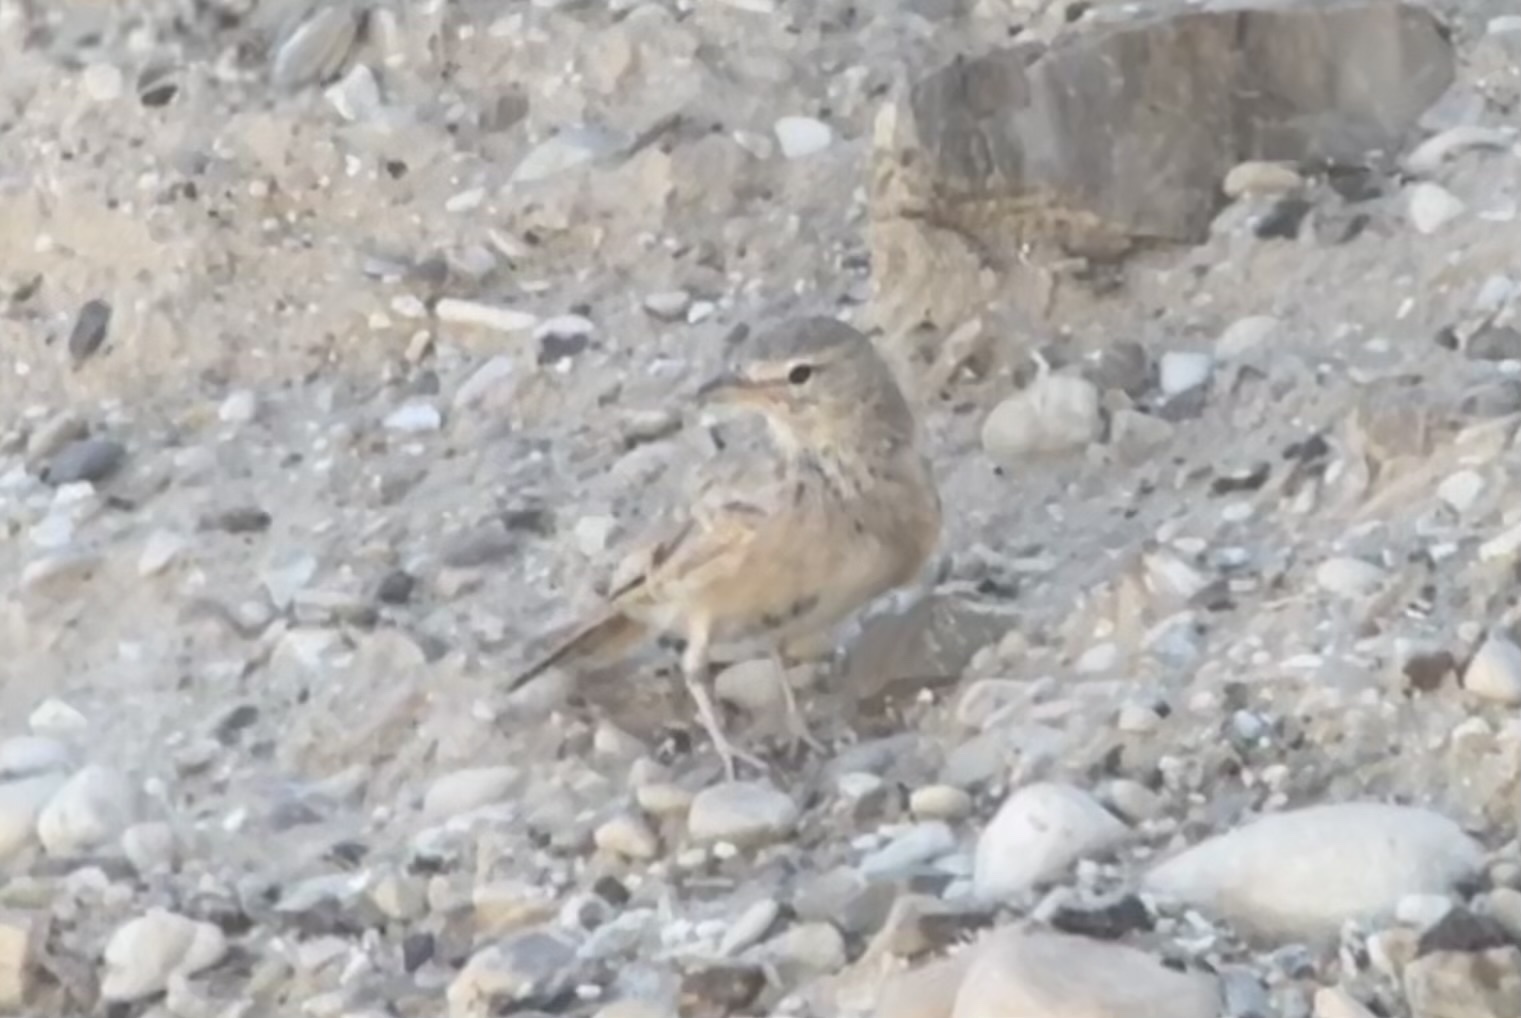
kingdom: Animalia
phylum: Chordata
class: Aves
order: Passeriformes
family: Alaudidae
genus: Ammomanes
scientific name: Ammomanes deserti
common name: Desert lark
